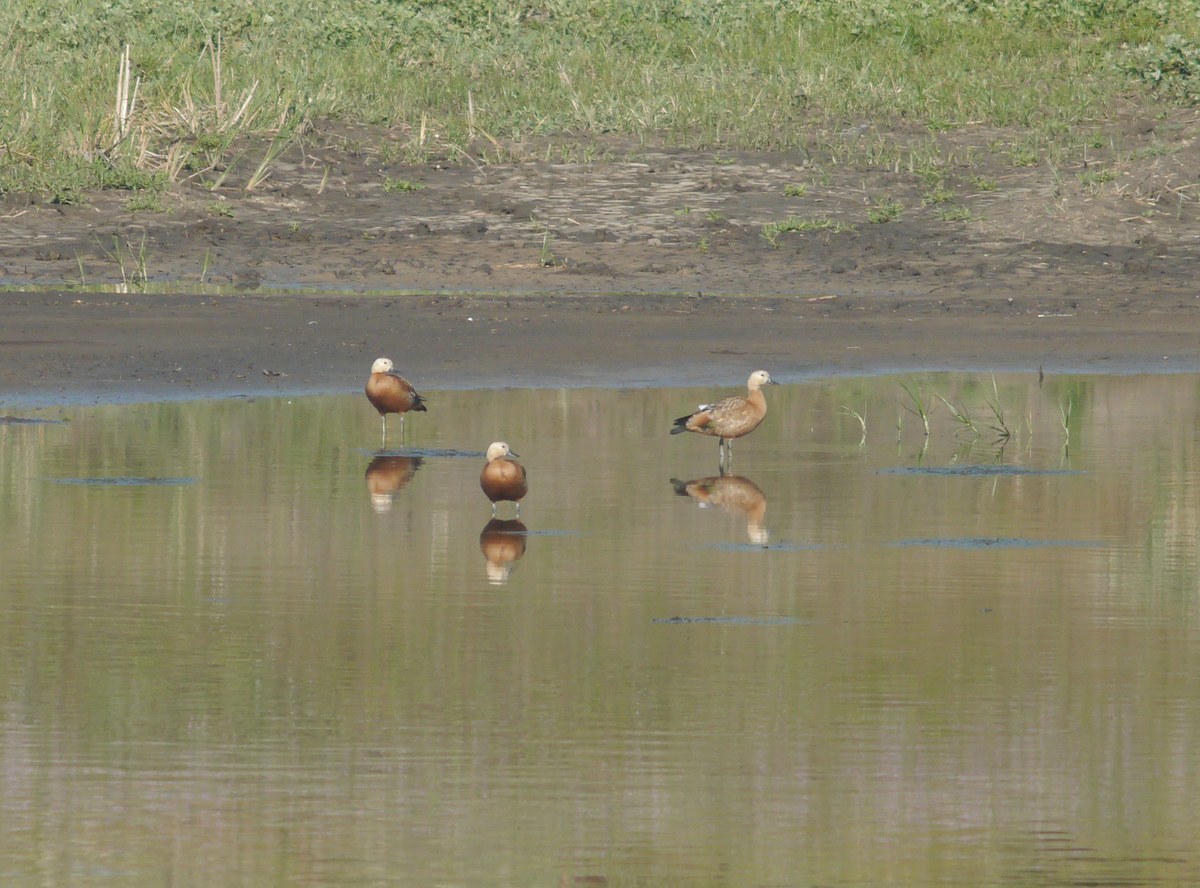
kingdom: Animalia
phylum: Chordata
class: Aves
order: Anseriformes
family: Anatidae
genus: Tadorna
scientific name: Tadorna ferruginea
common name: Ruddy shelduck
